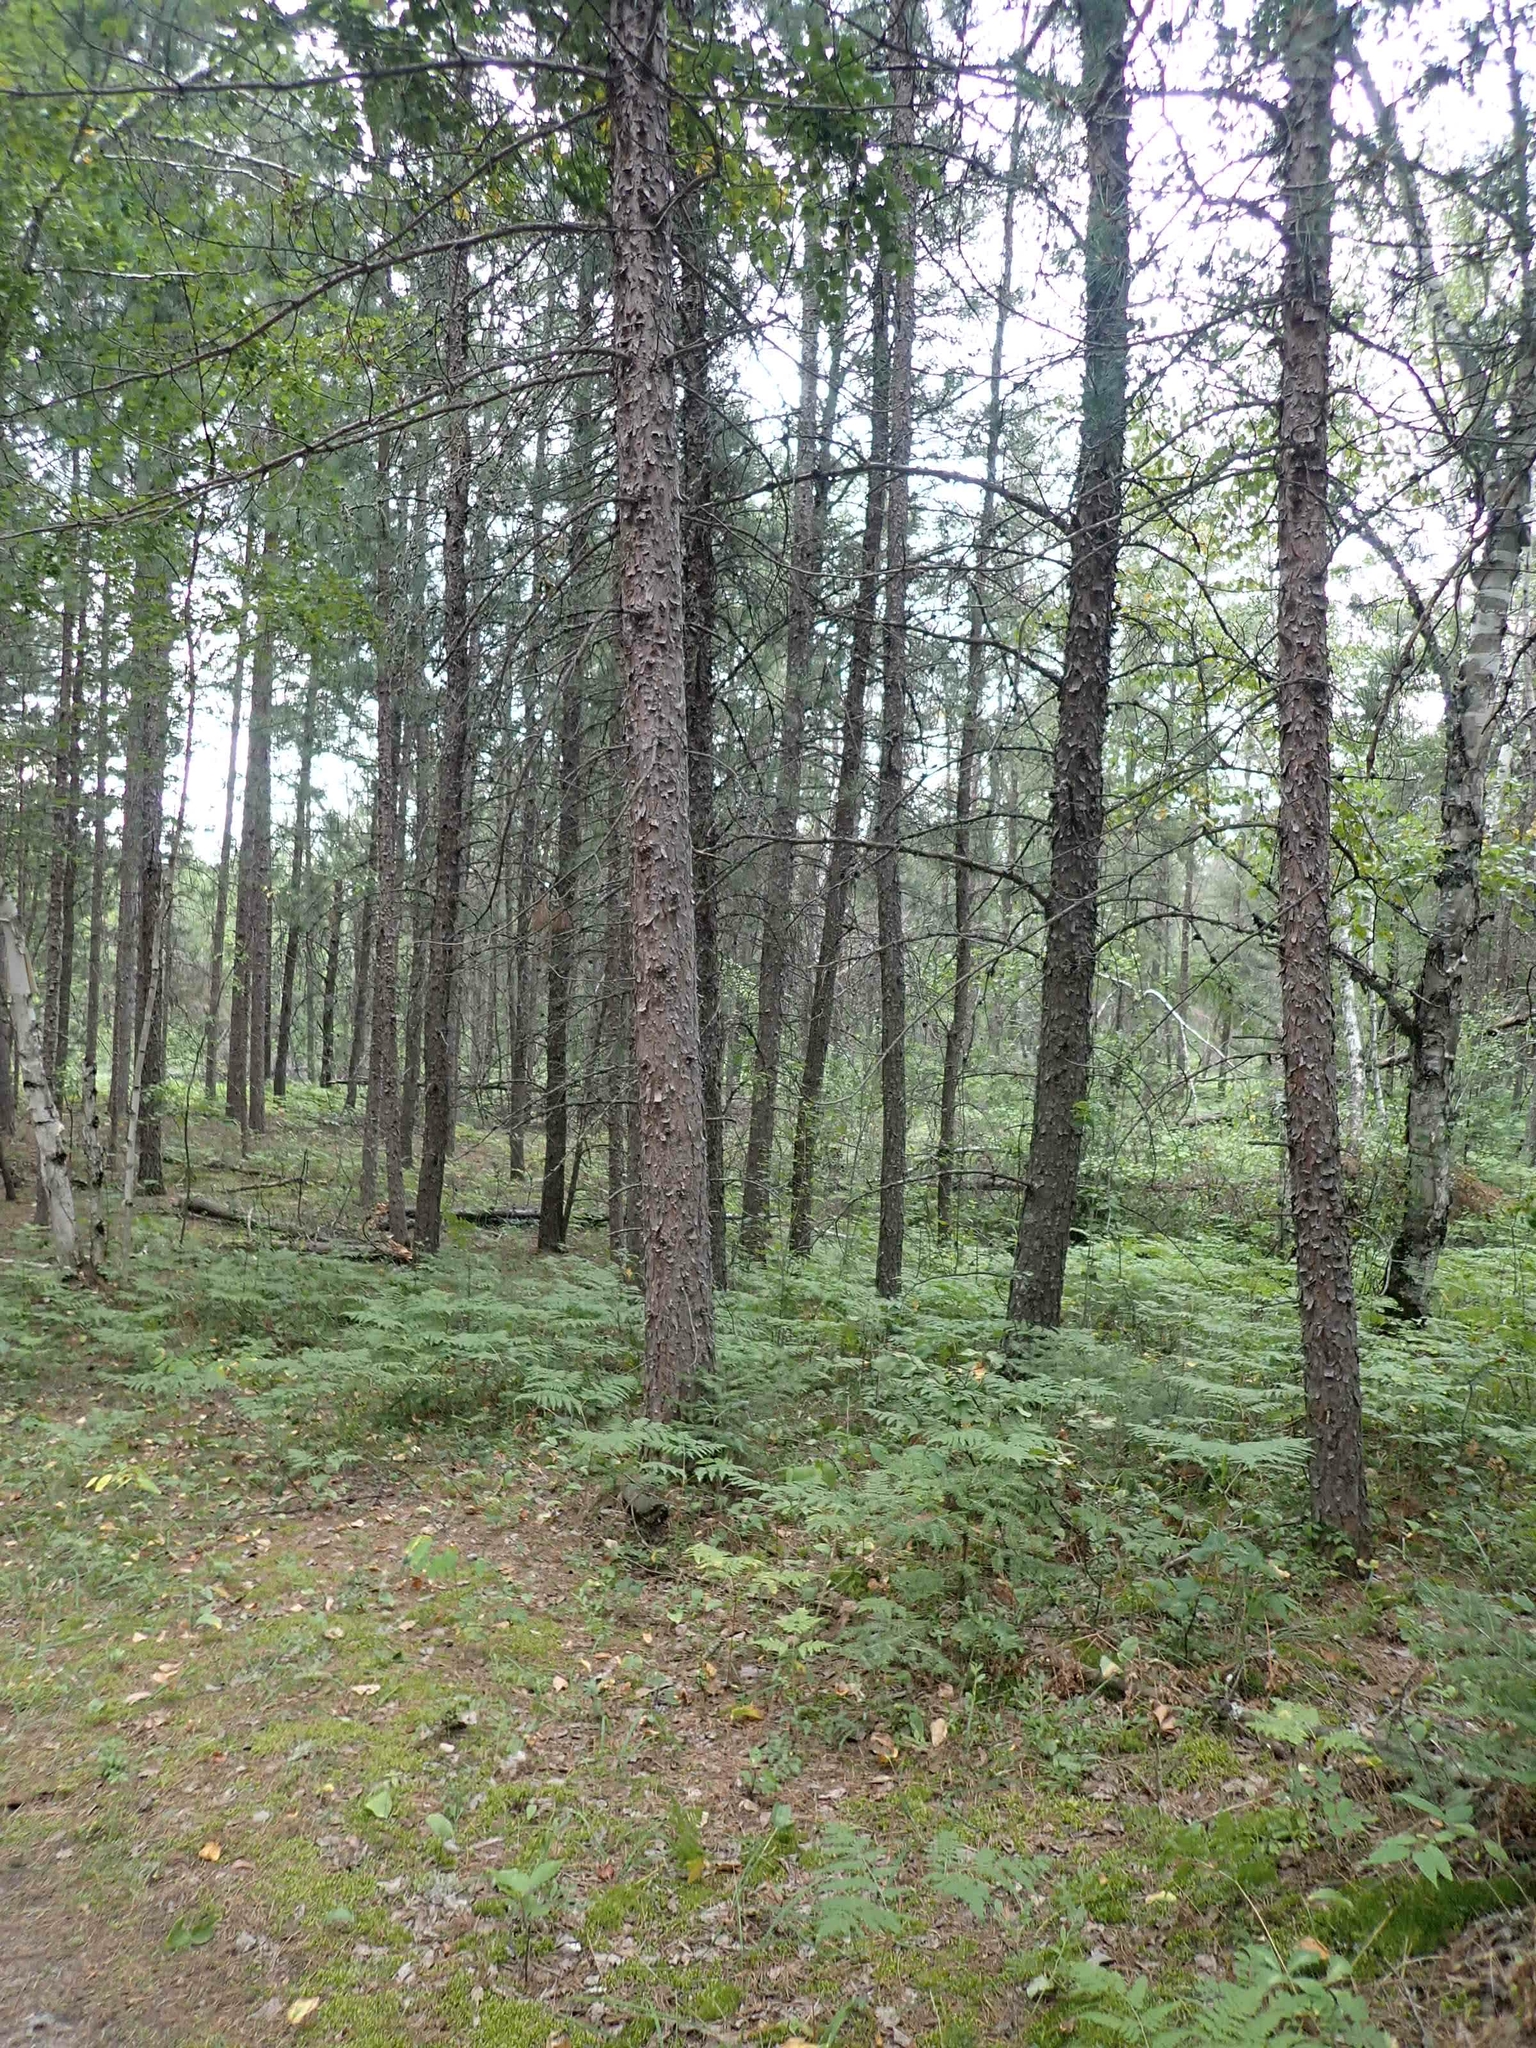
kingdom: Plantae
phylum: Tracheophyta
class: Pinopsida
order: Pinales
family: Pinaceae
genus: Pinus
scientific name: Pinus banksiana
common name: Jack pine
